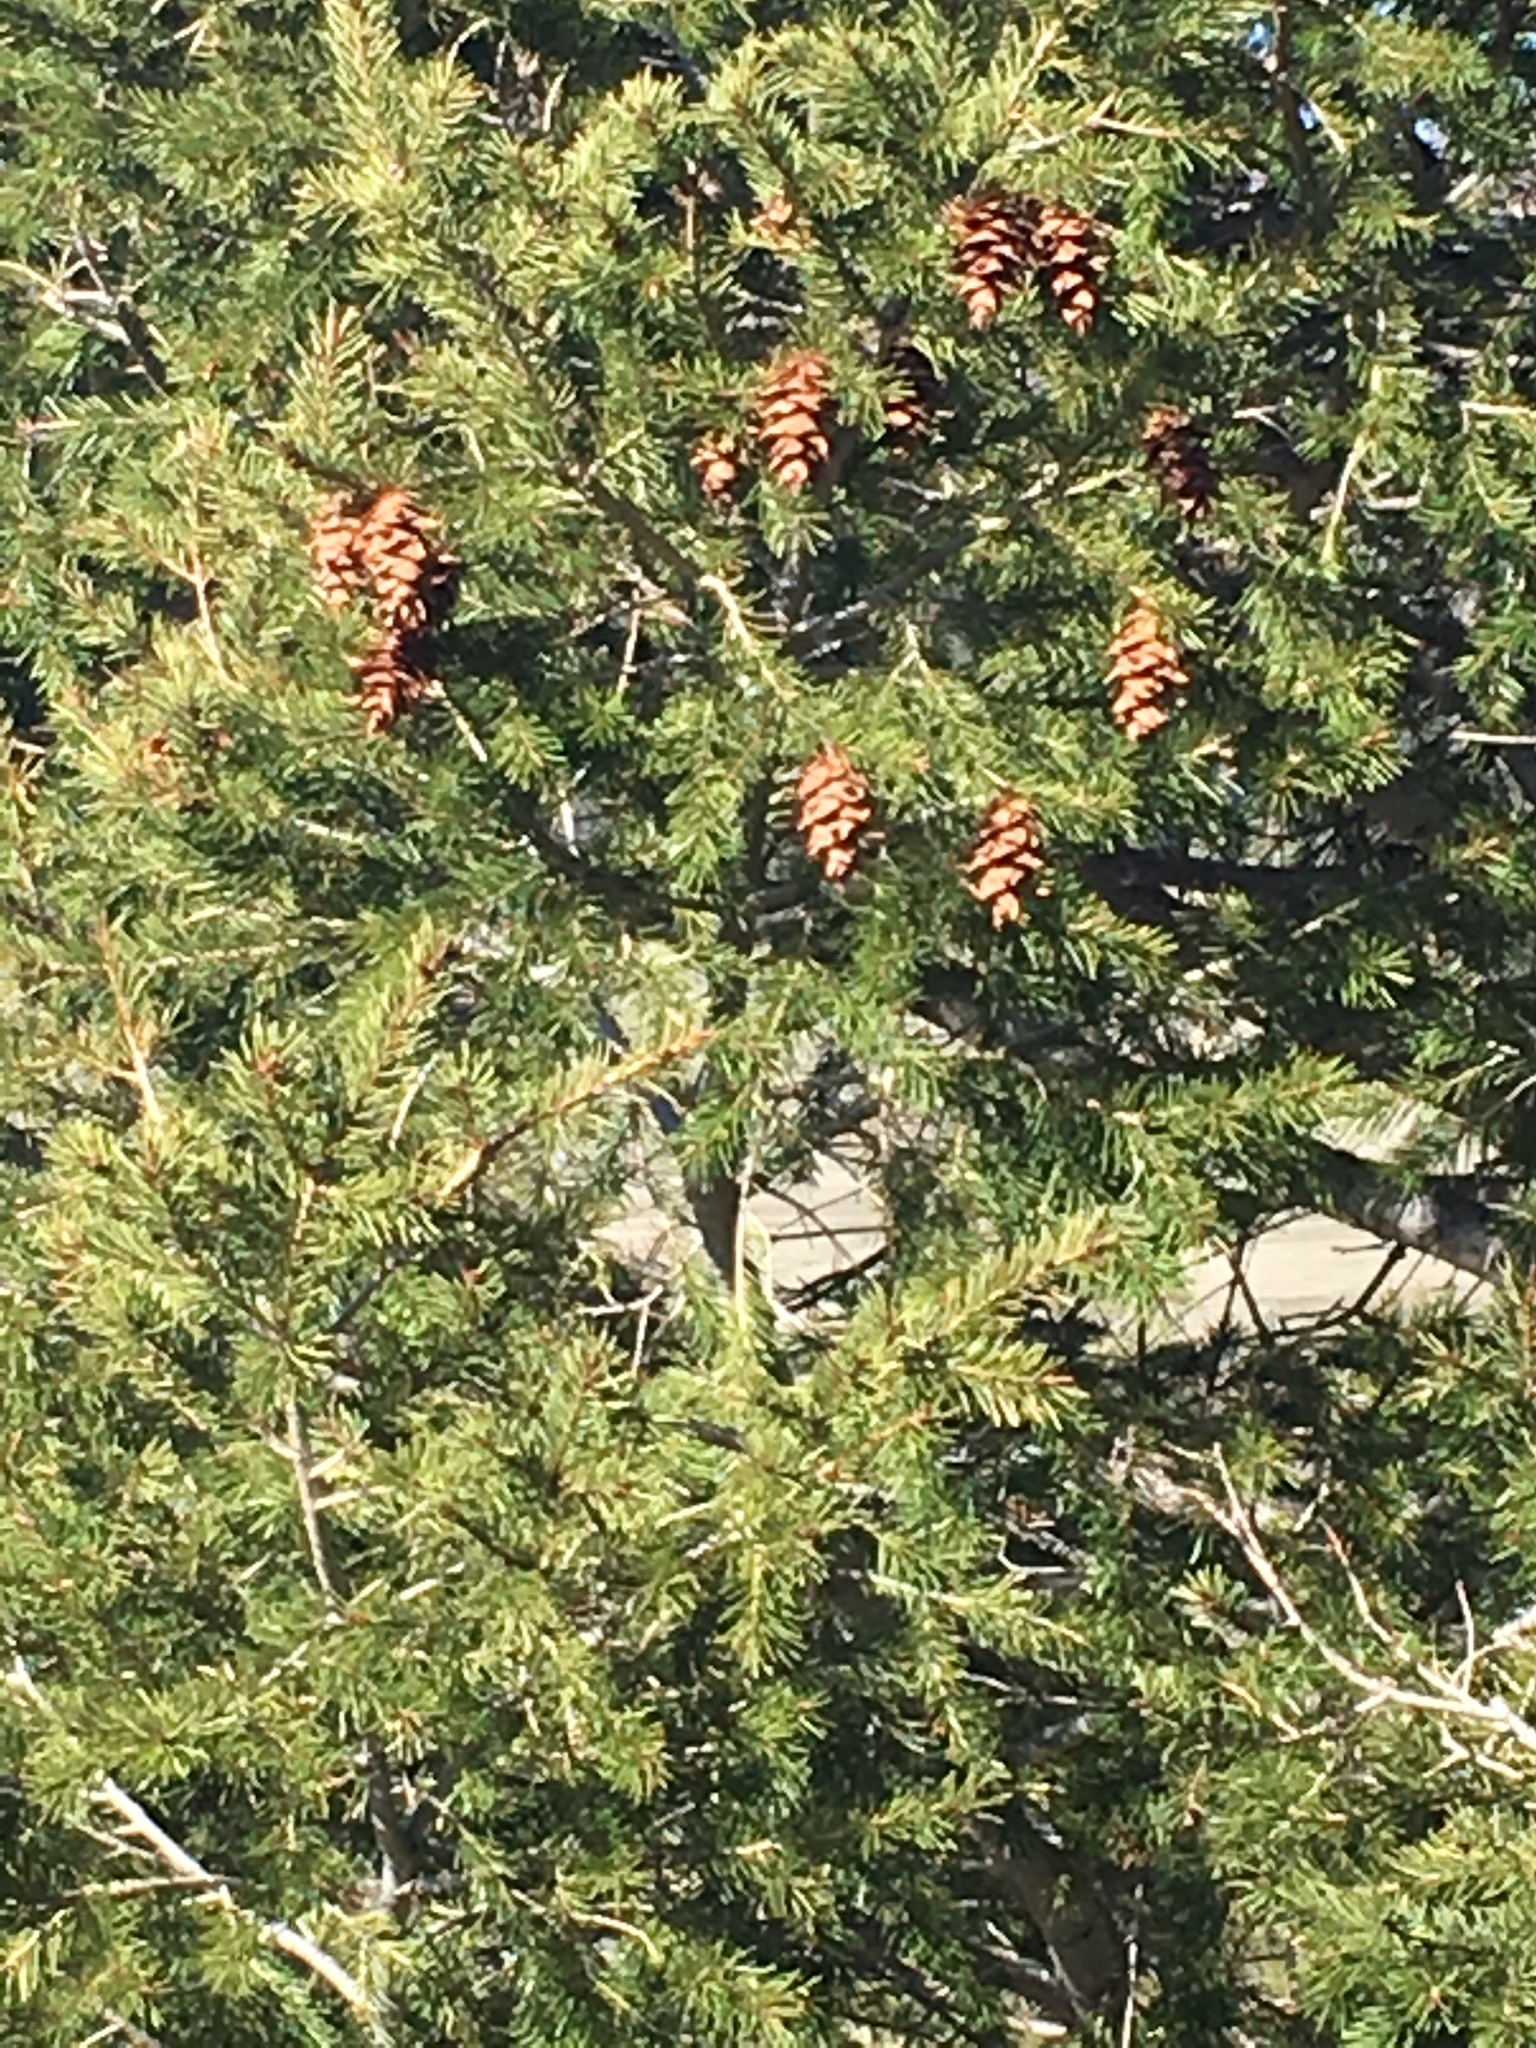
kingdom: Plantae
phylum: Tracheophyta
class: Pinopsida
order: Pinales
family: Pinaceae
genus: Pseudotsuga
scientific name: Pseudotsuga menziesii
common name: Douglas fir
